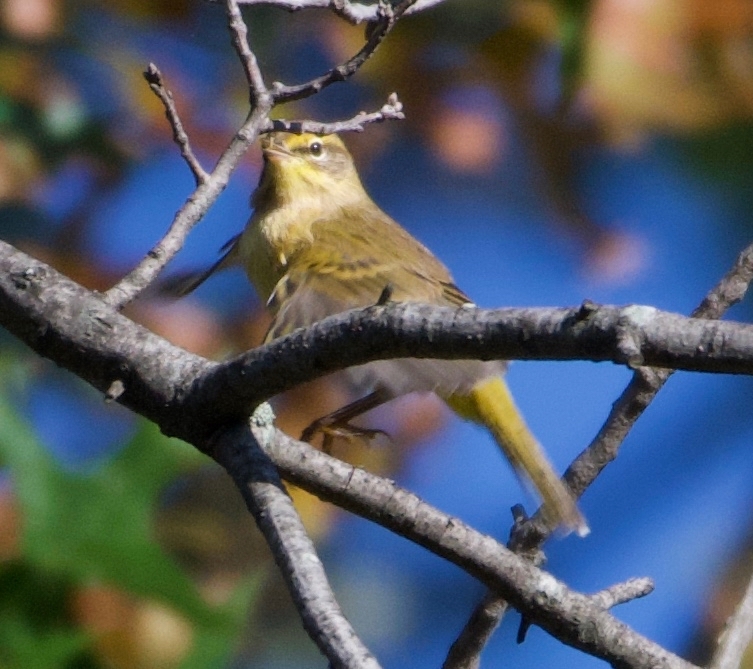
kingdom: Animalia
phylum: Chordata
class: Aves
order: Passeriformes
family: Parulidae
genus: Setophaga
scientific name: Setophaga palmarum
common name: Palm warbler
